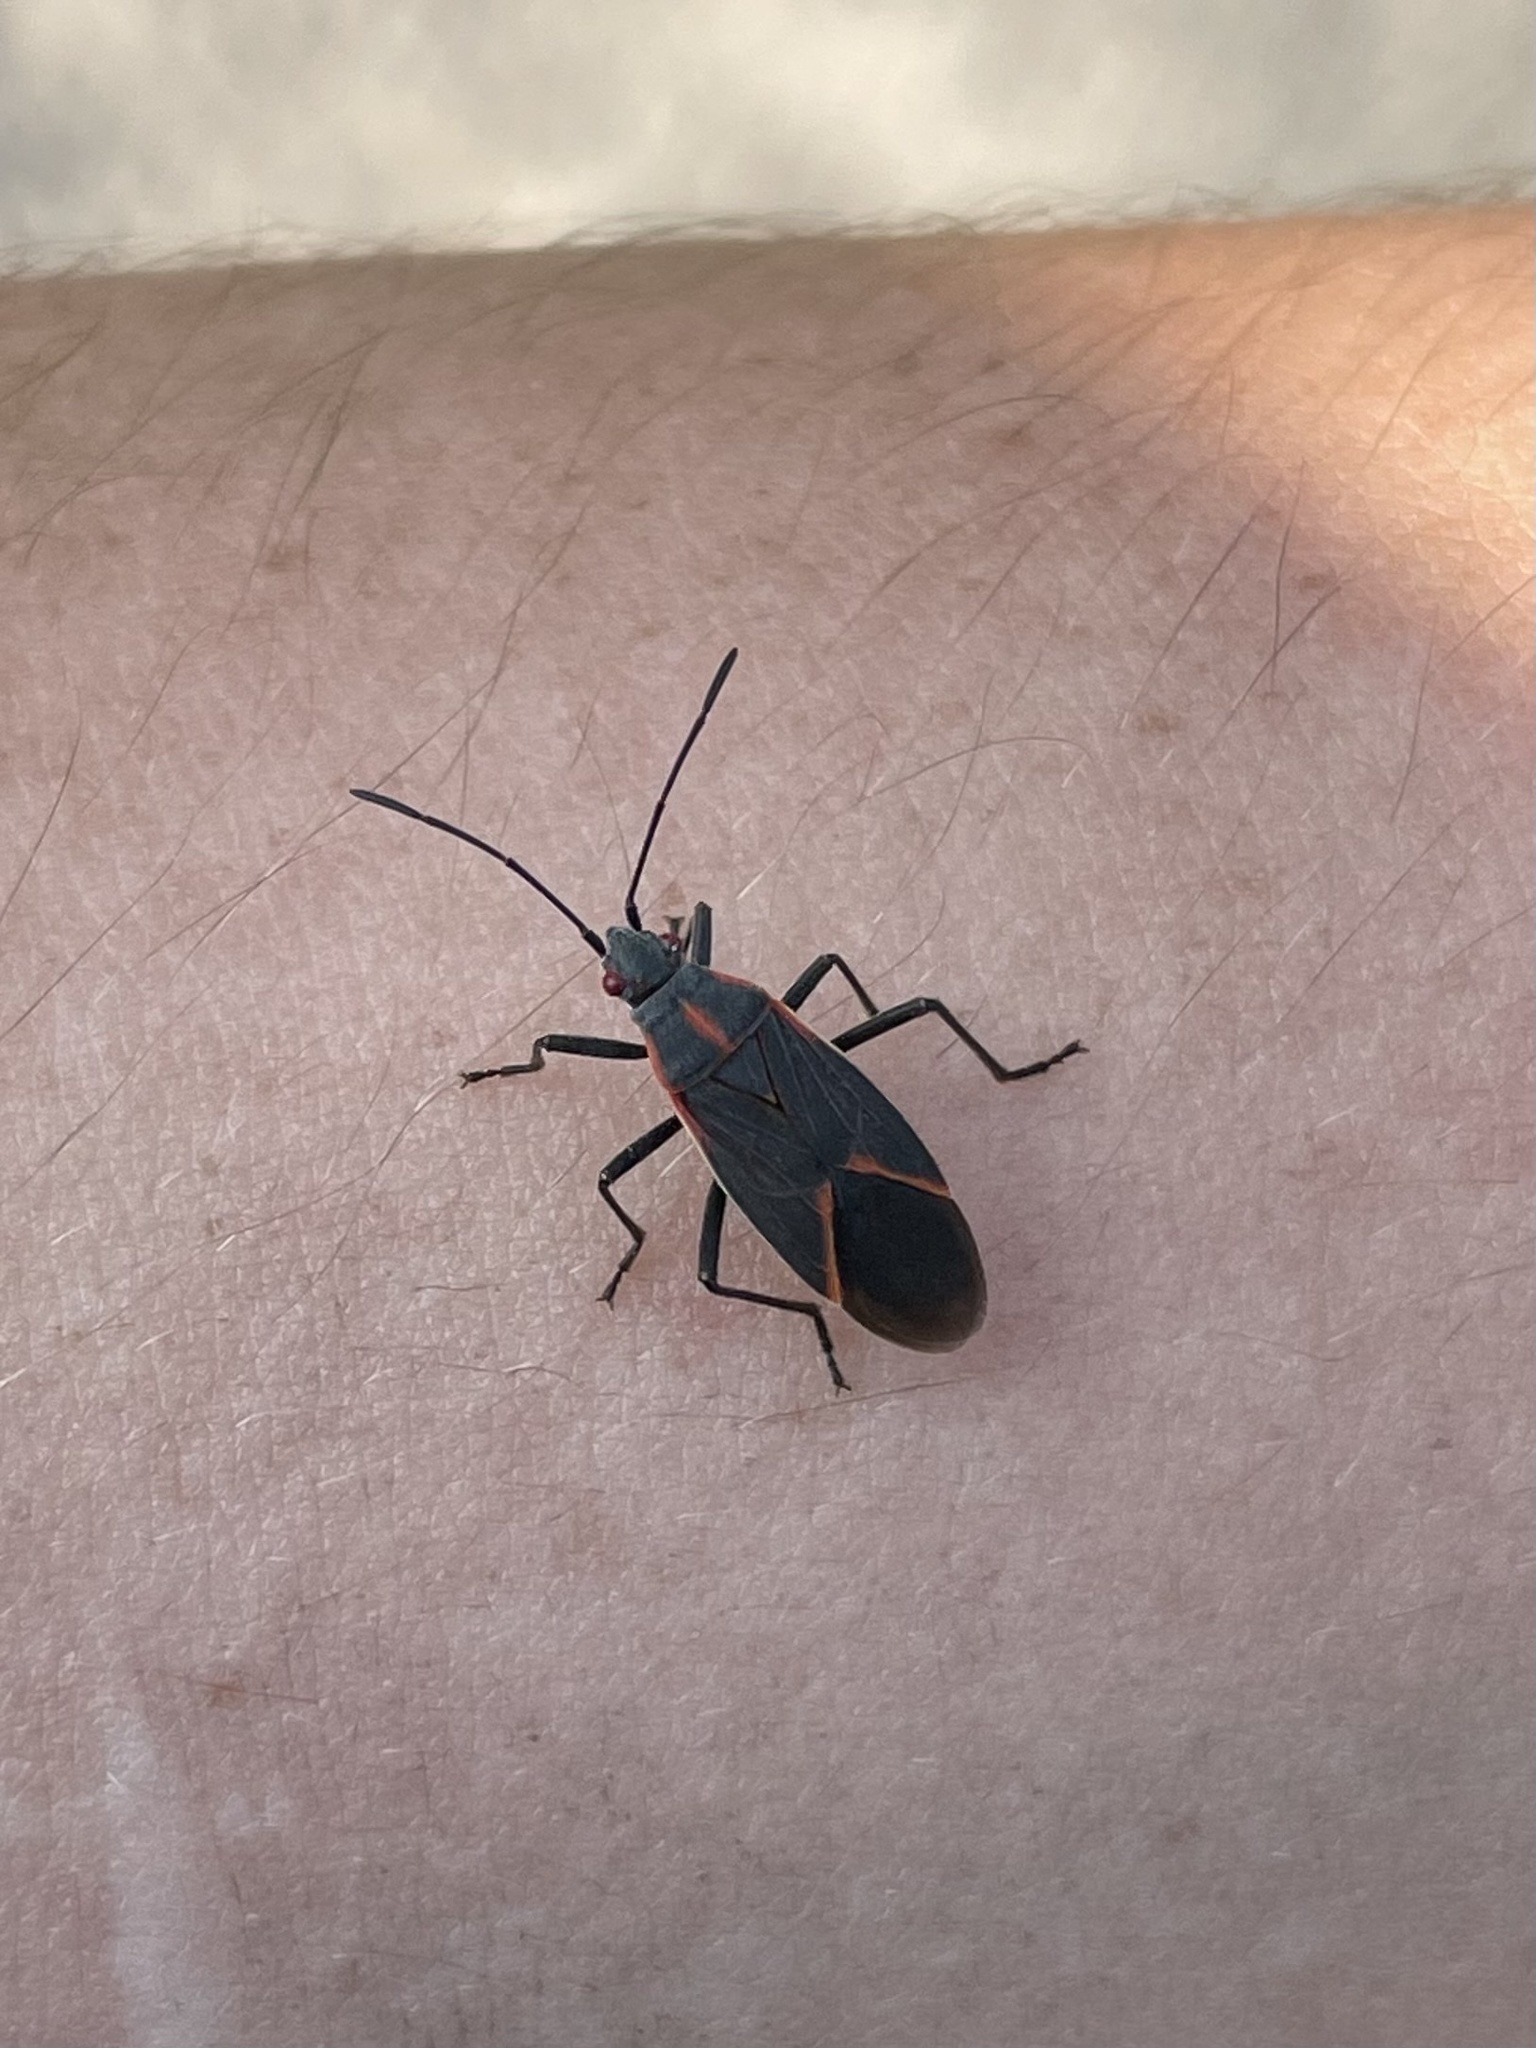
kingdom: Animalia
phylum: Arthropoda
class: Insecta
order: Hemiptera
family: Rhopalidae
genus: Boisea
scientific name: Boisea trivittata
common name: Boxelder bug
